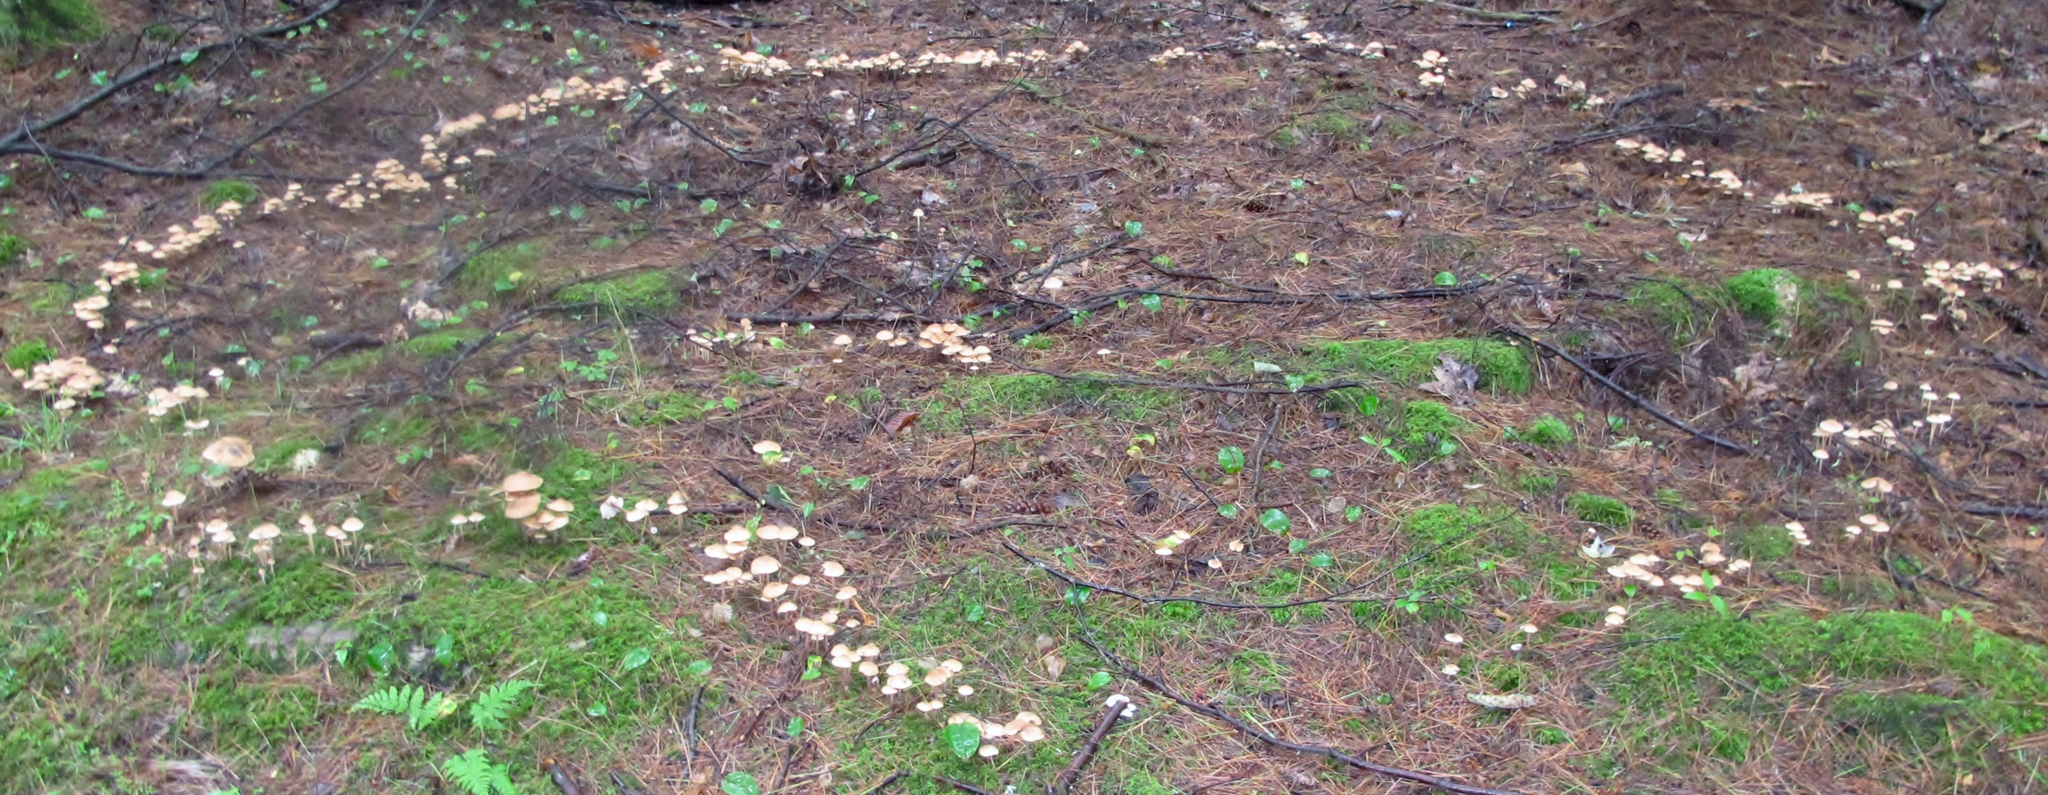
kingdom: Fungi
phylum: Basidiomycota
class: Agaricomycetes
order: Agaricales
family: Omphalotaceae
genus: Collybiopsis
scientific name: Collybiopsis confluens
